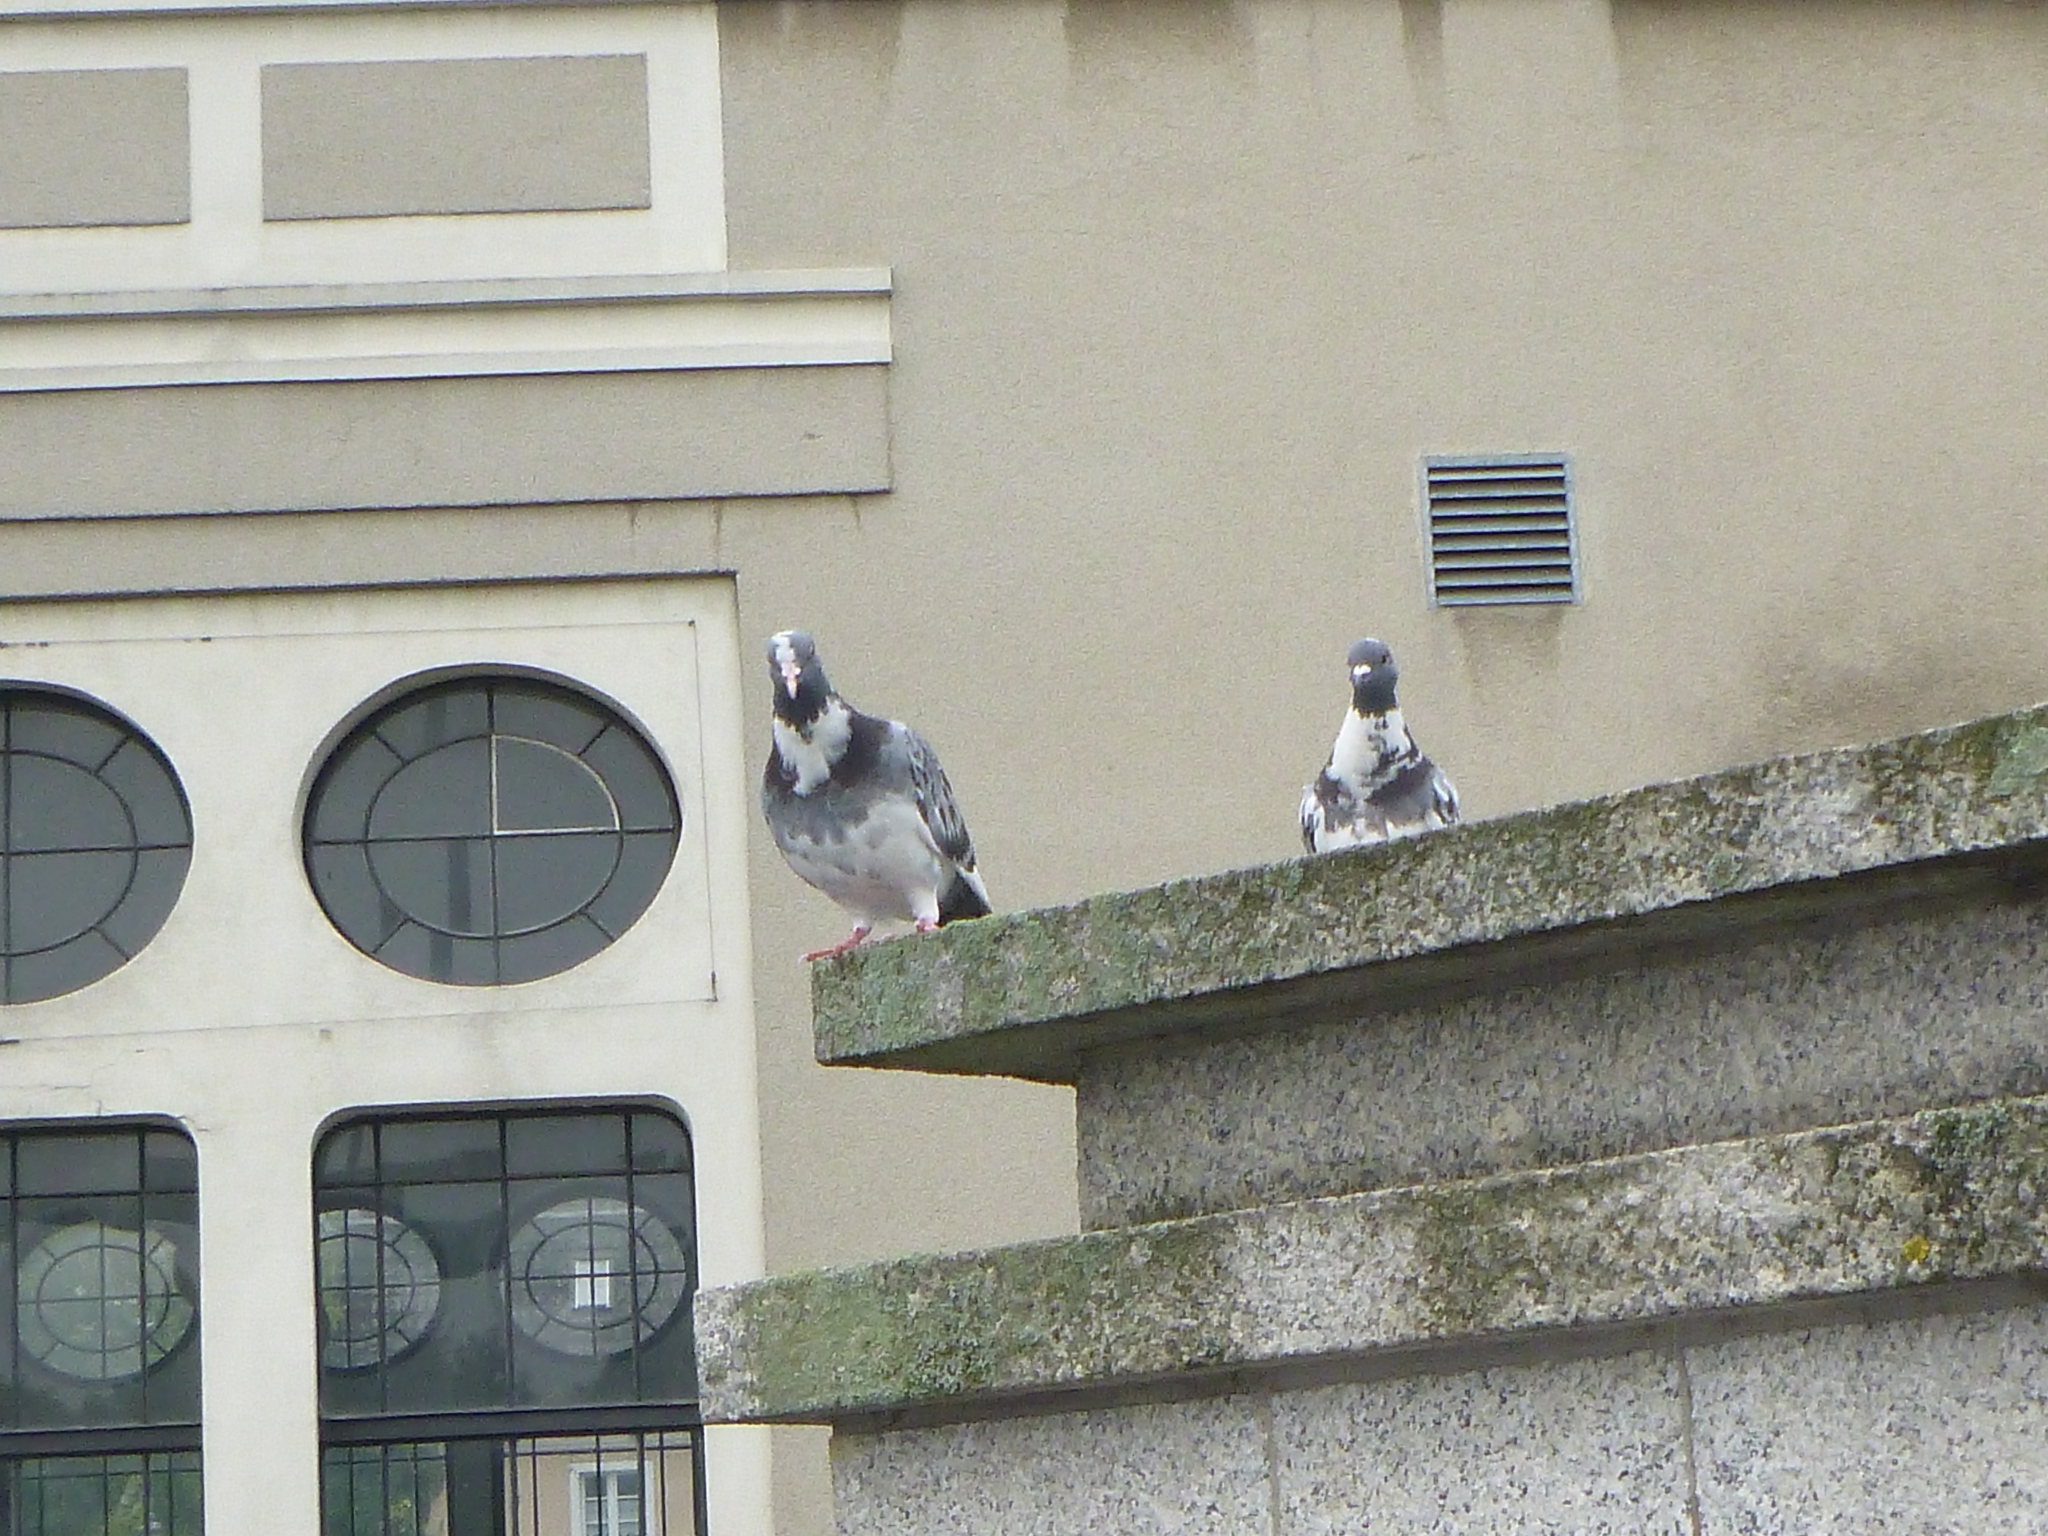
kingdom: Animalia
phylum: Chordata
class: Aves
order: Columbiformes
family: Columbidae
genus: Columba
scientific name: Columba livia
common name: Rock pigeon
